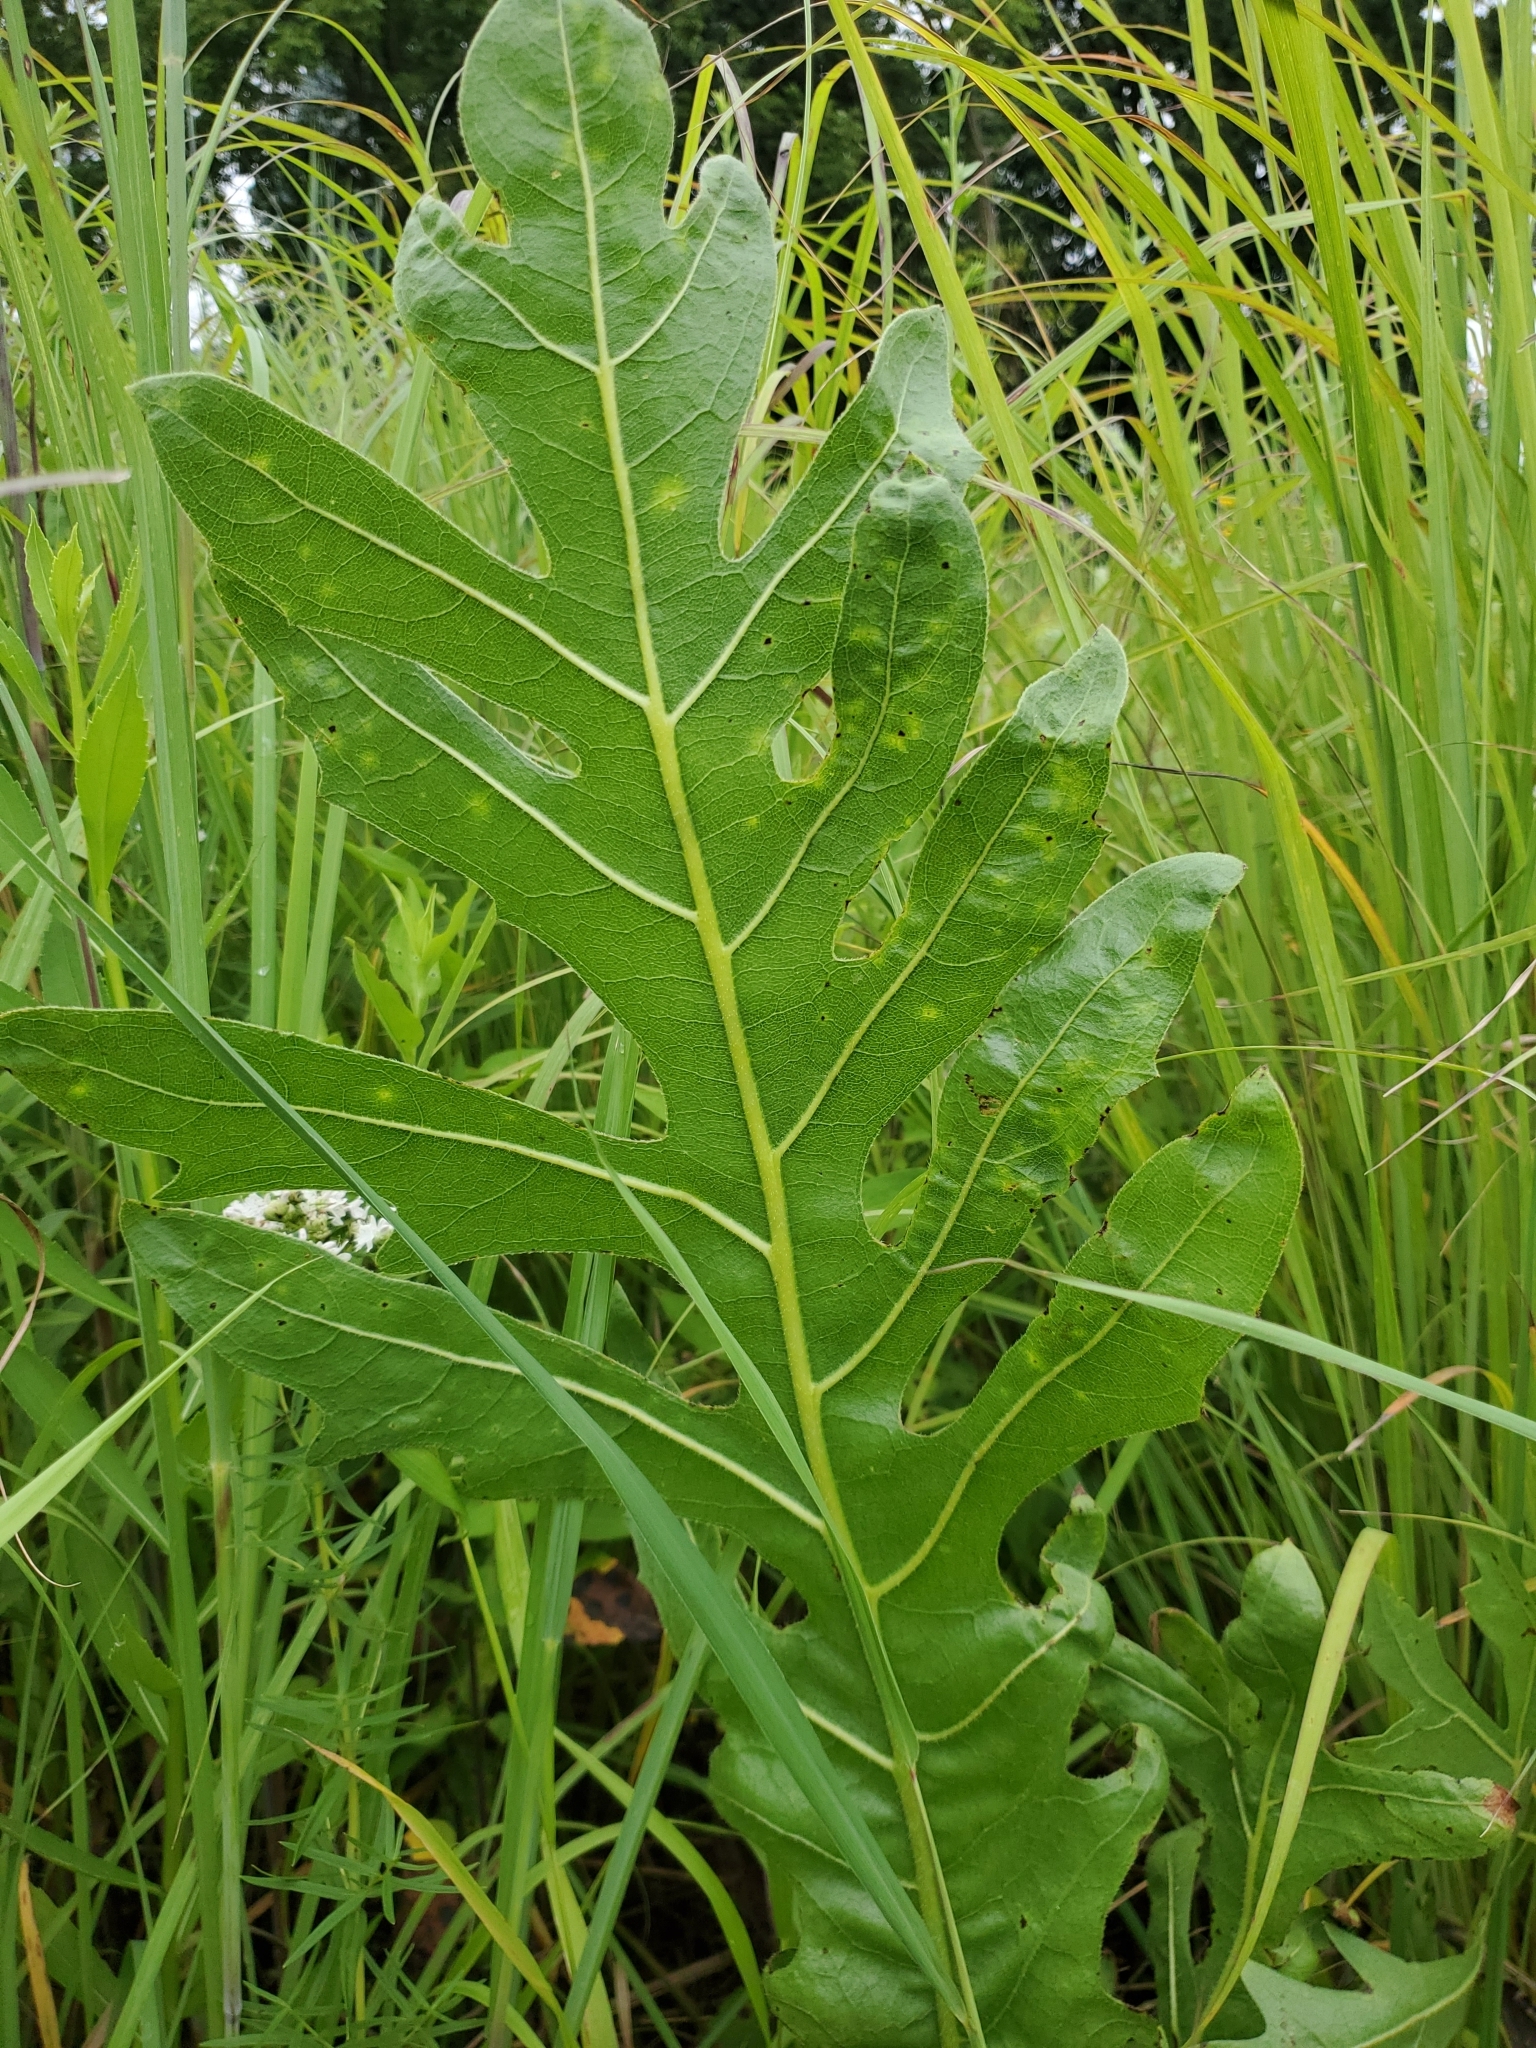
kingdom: Plantae
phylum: Tracheophyta
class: Magnoliopsida
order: Asterales
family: Asteraceae
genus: Silphium
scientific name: Silphium laciniatum
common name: Polarplant
